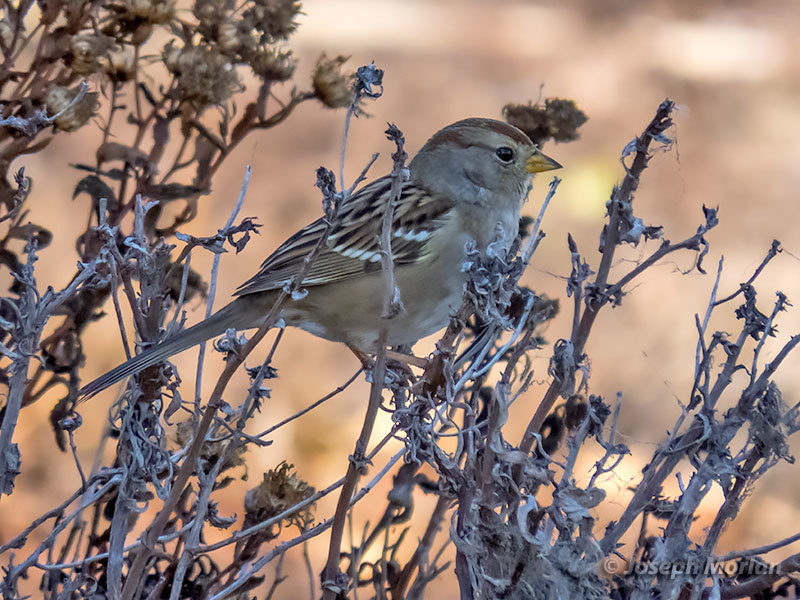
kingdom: Animalia
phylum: Chordata
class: Aves
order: Passeriformes
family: Passerellidae
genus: Zonotrichia
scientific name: Zonotrichia leucophrys
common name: White-crowned sparrow
